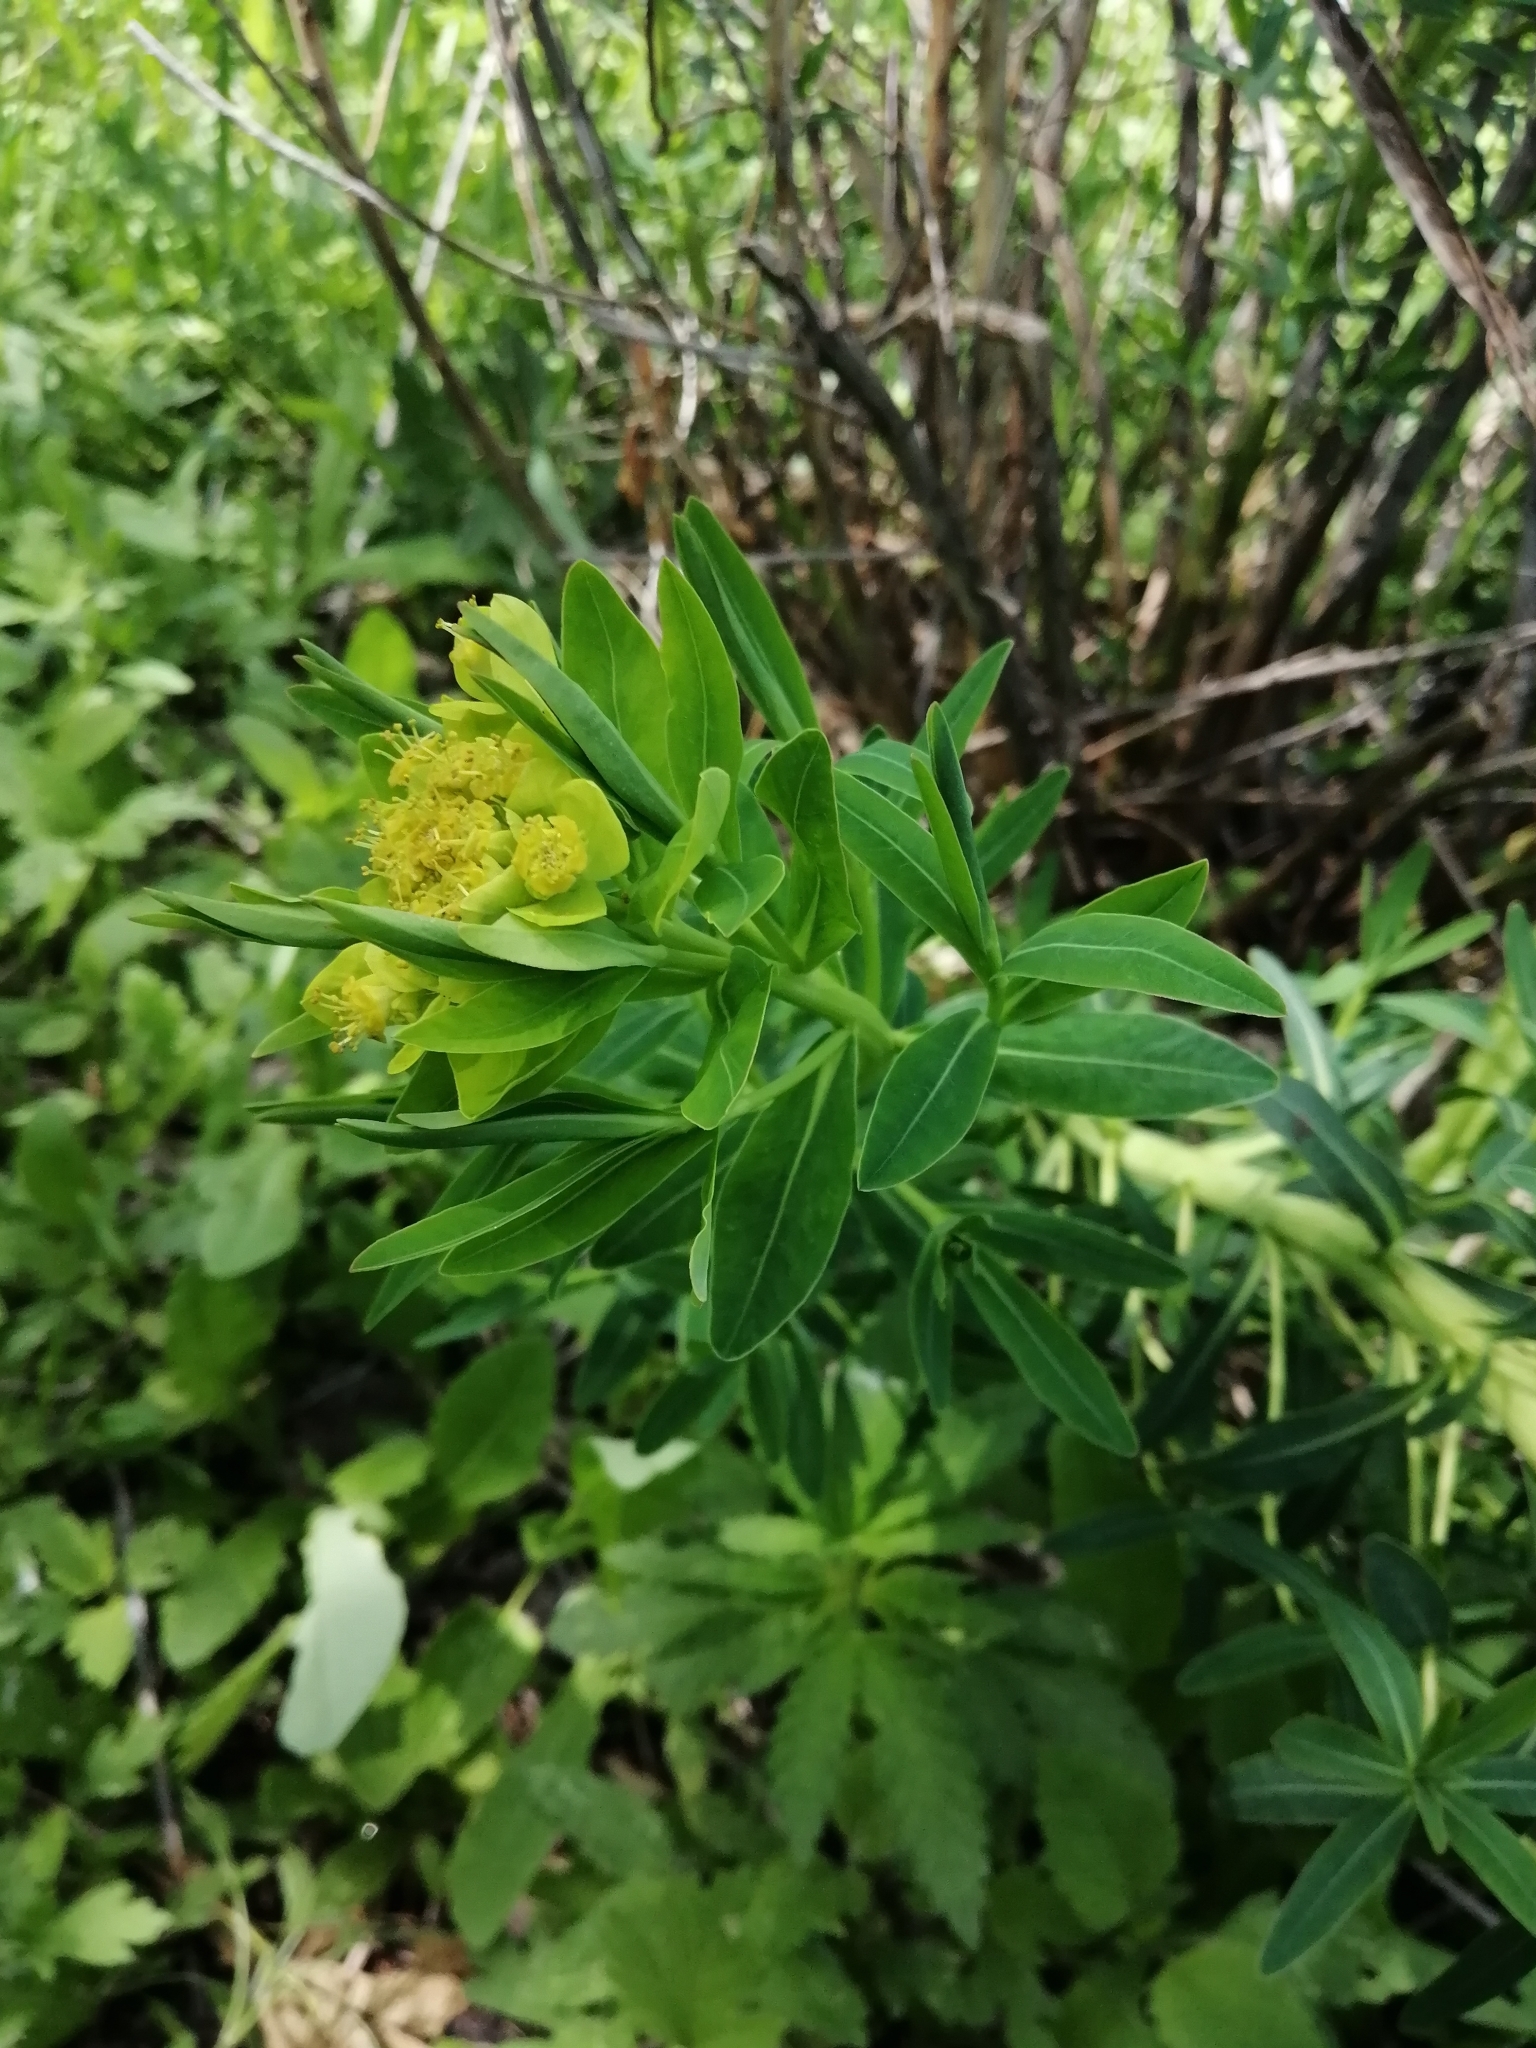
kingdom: Plantae
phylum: Tracheophyta
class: Magnoliopsida
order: Malpighiales
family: Euphorbiaceae
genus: Euphorbia
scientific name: Euphorbia palustris
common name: Marsh spurge
